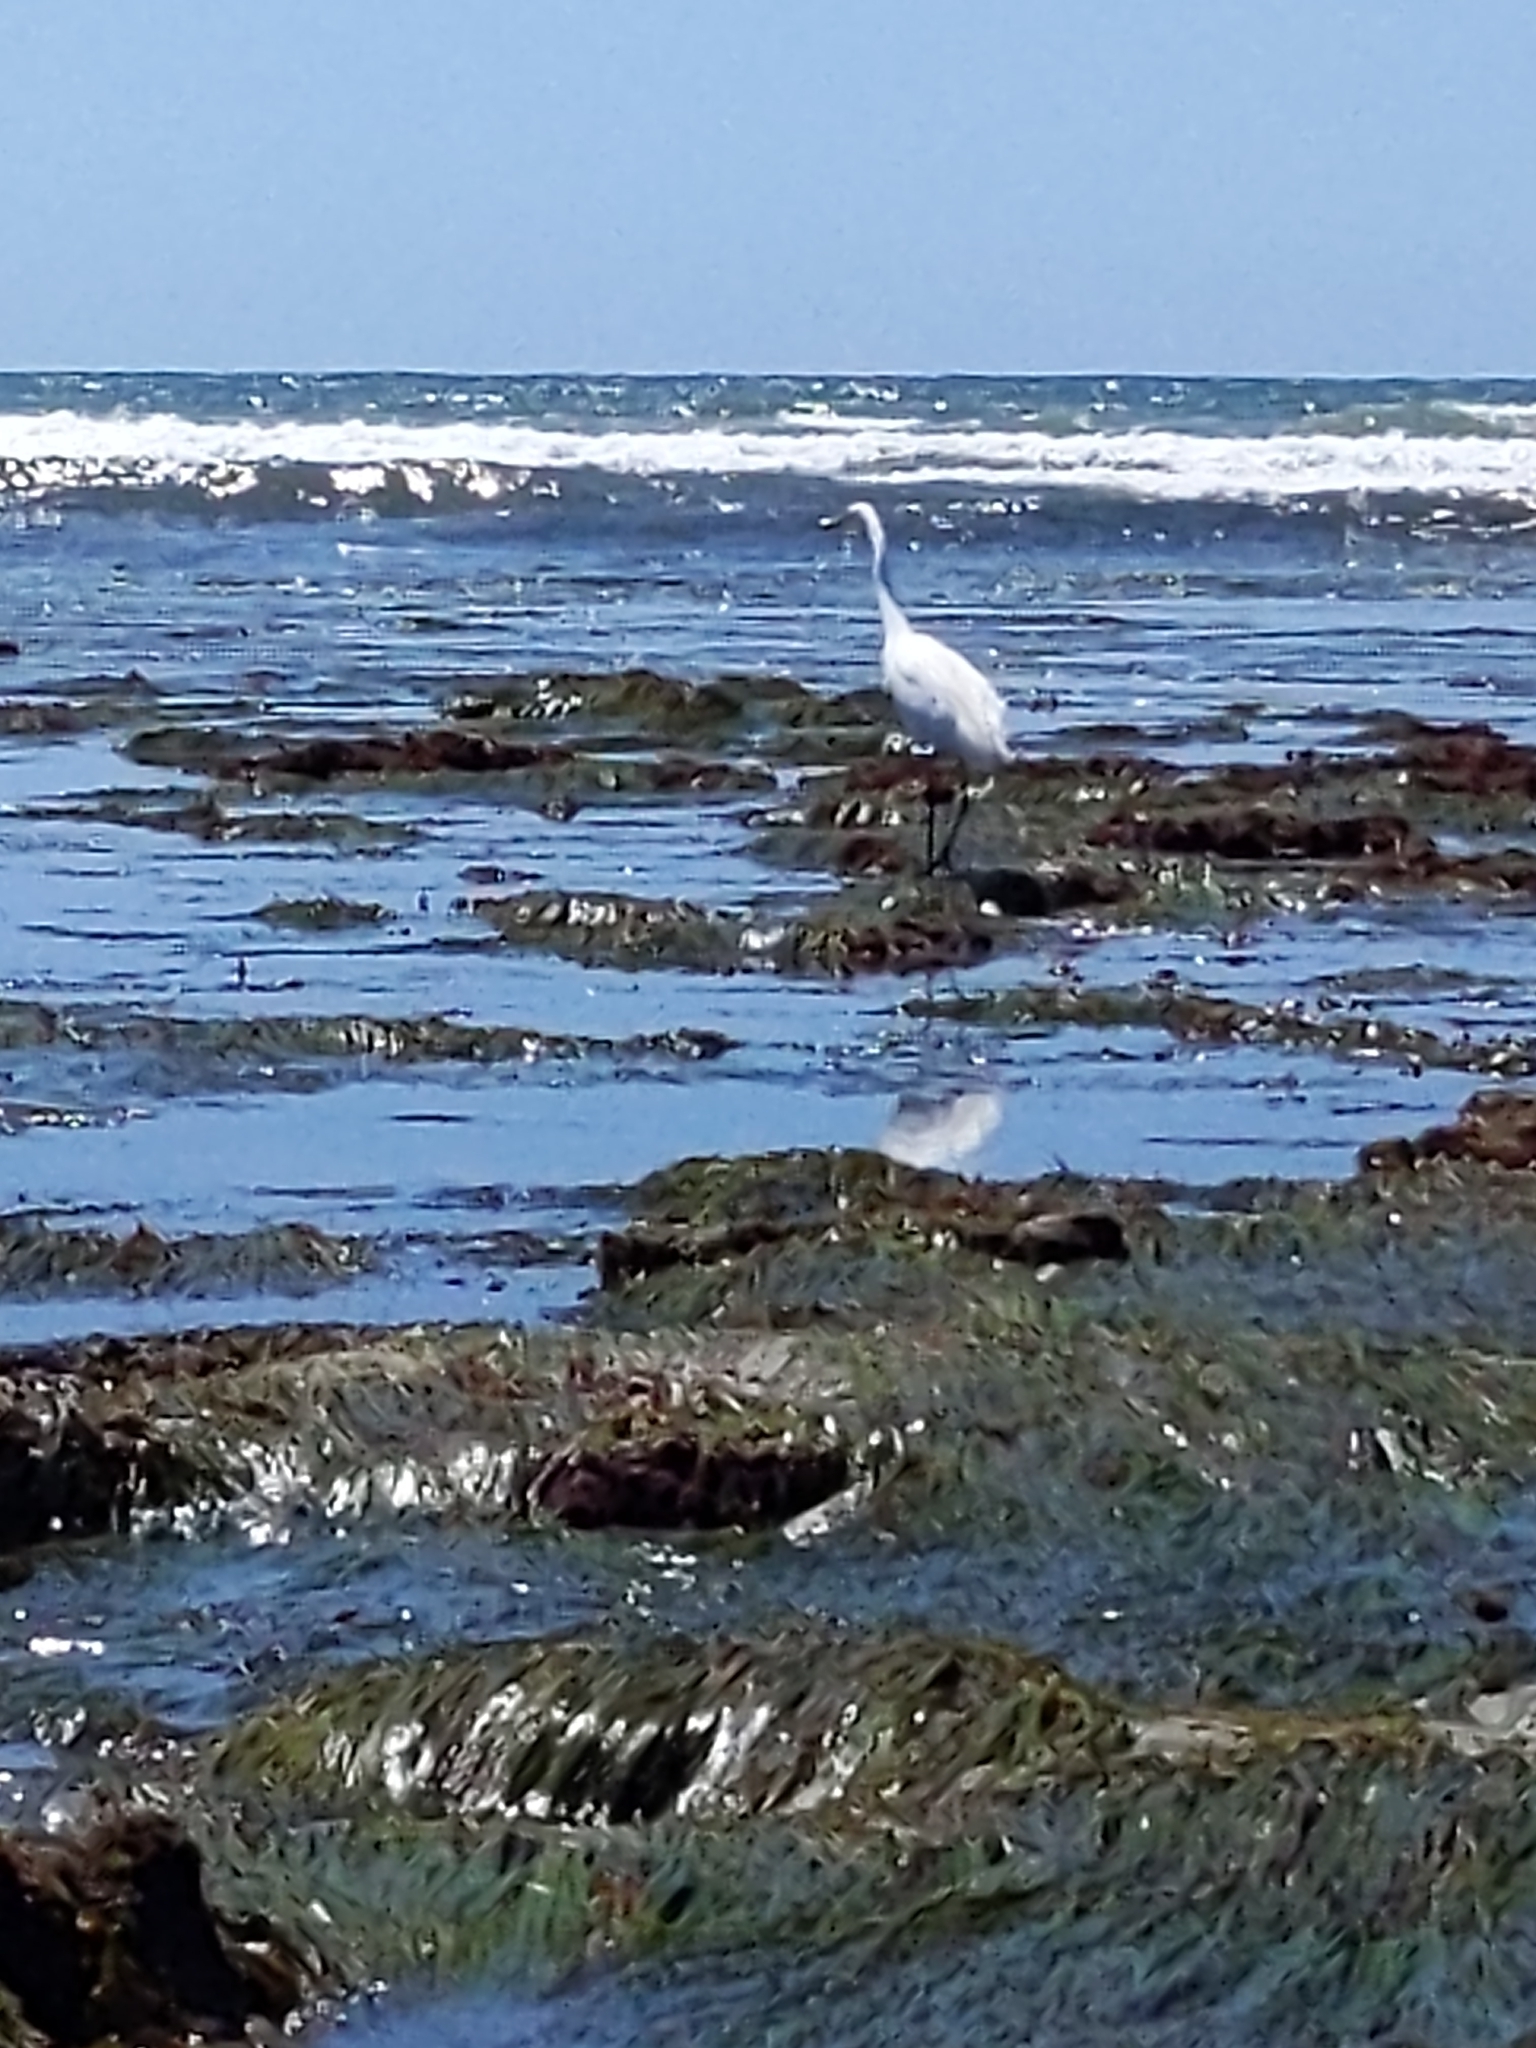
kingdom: Animalia
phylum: Chordata
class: Aves
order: Pelecaniformes
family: Ardeidae
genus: Ardea
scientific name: Ardea alba
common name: Great egret
